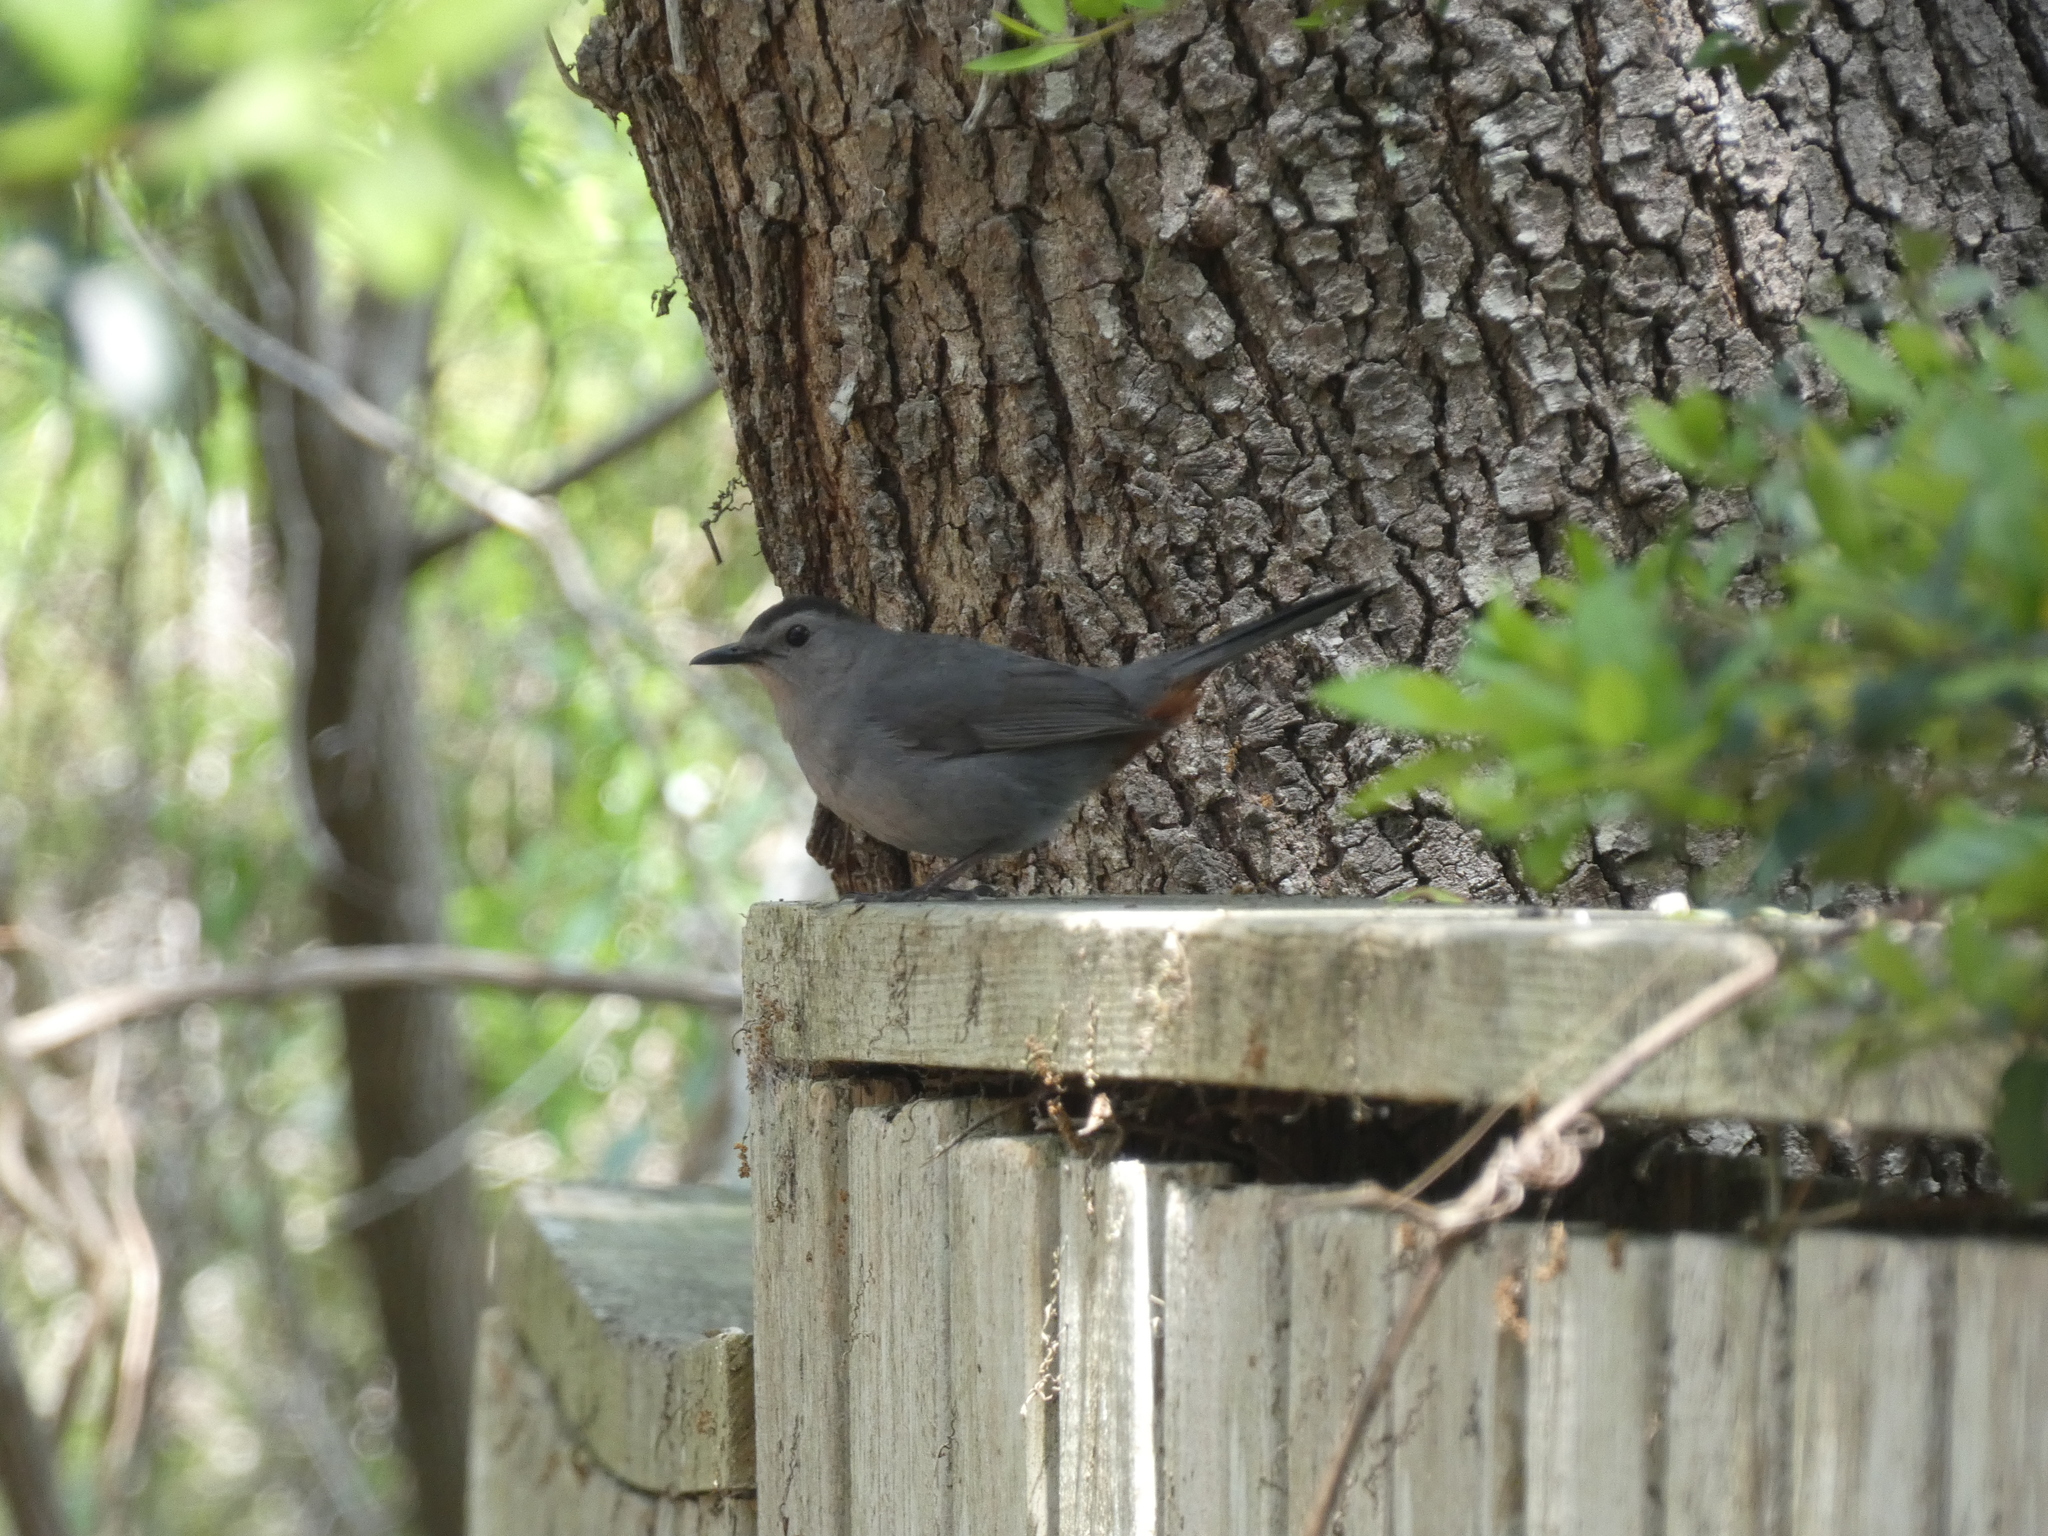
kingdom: Animalia
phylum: Chordata
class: Aves
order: Passeriformes
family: Mimidae
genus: Dumetella
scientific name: Dumetella carolinensis
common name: Gray catbird
